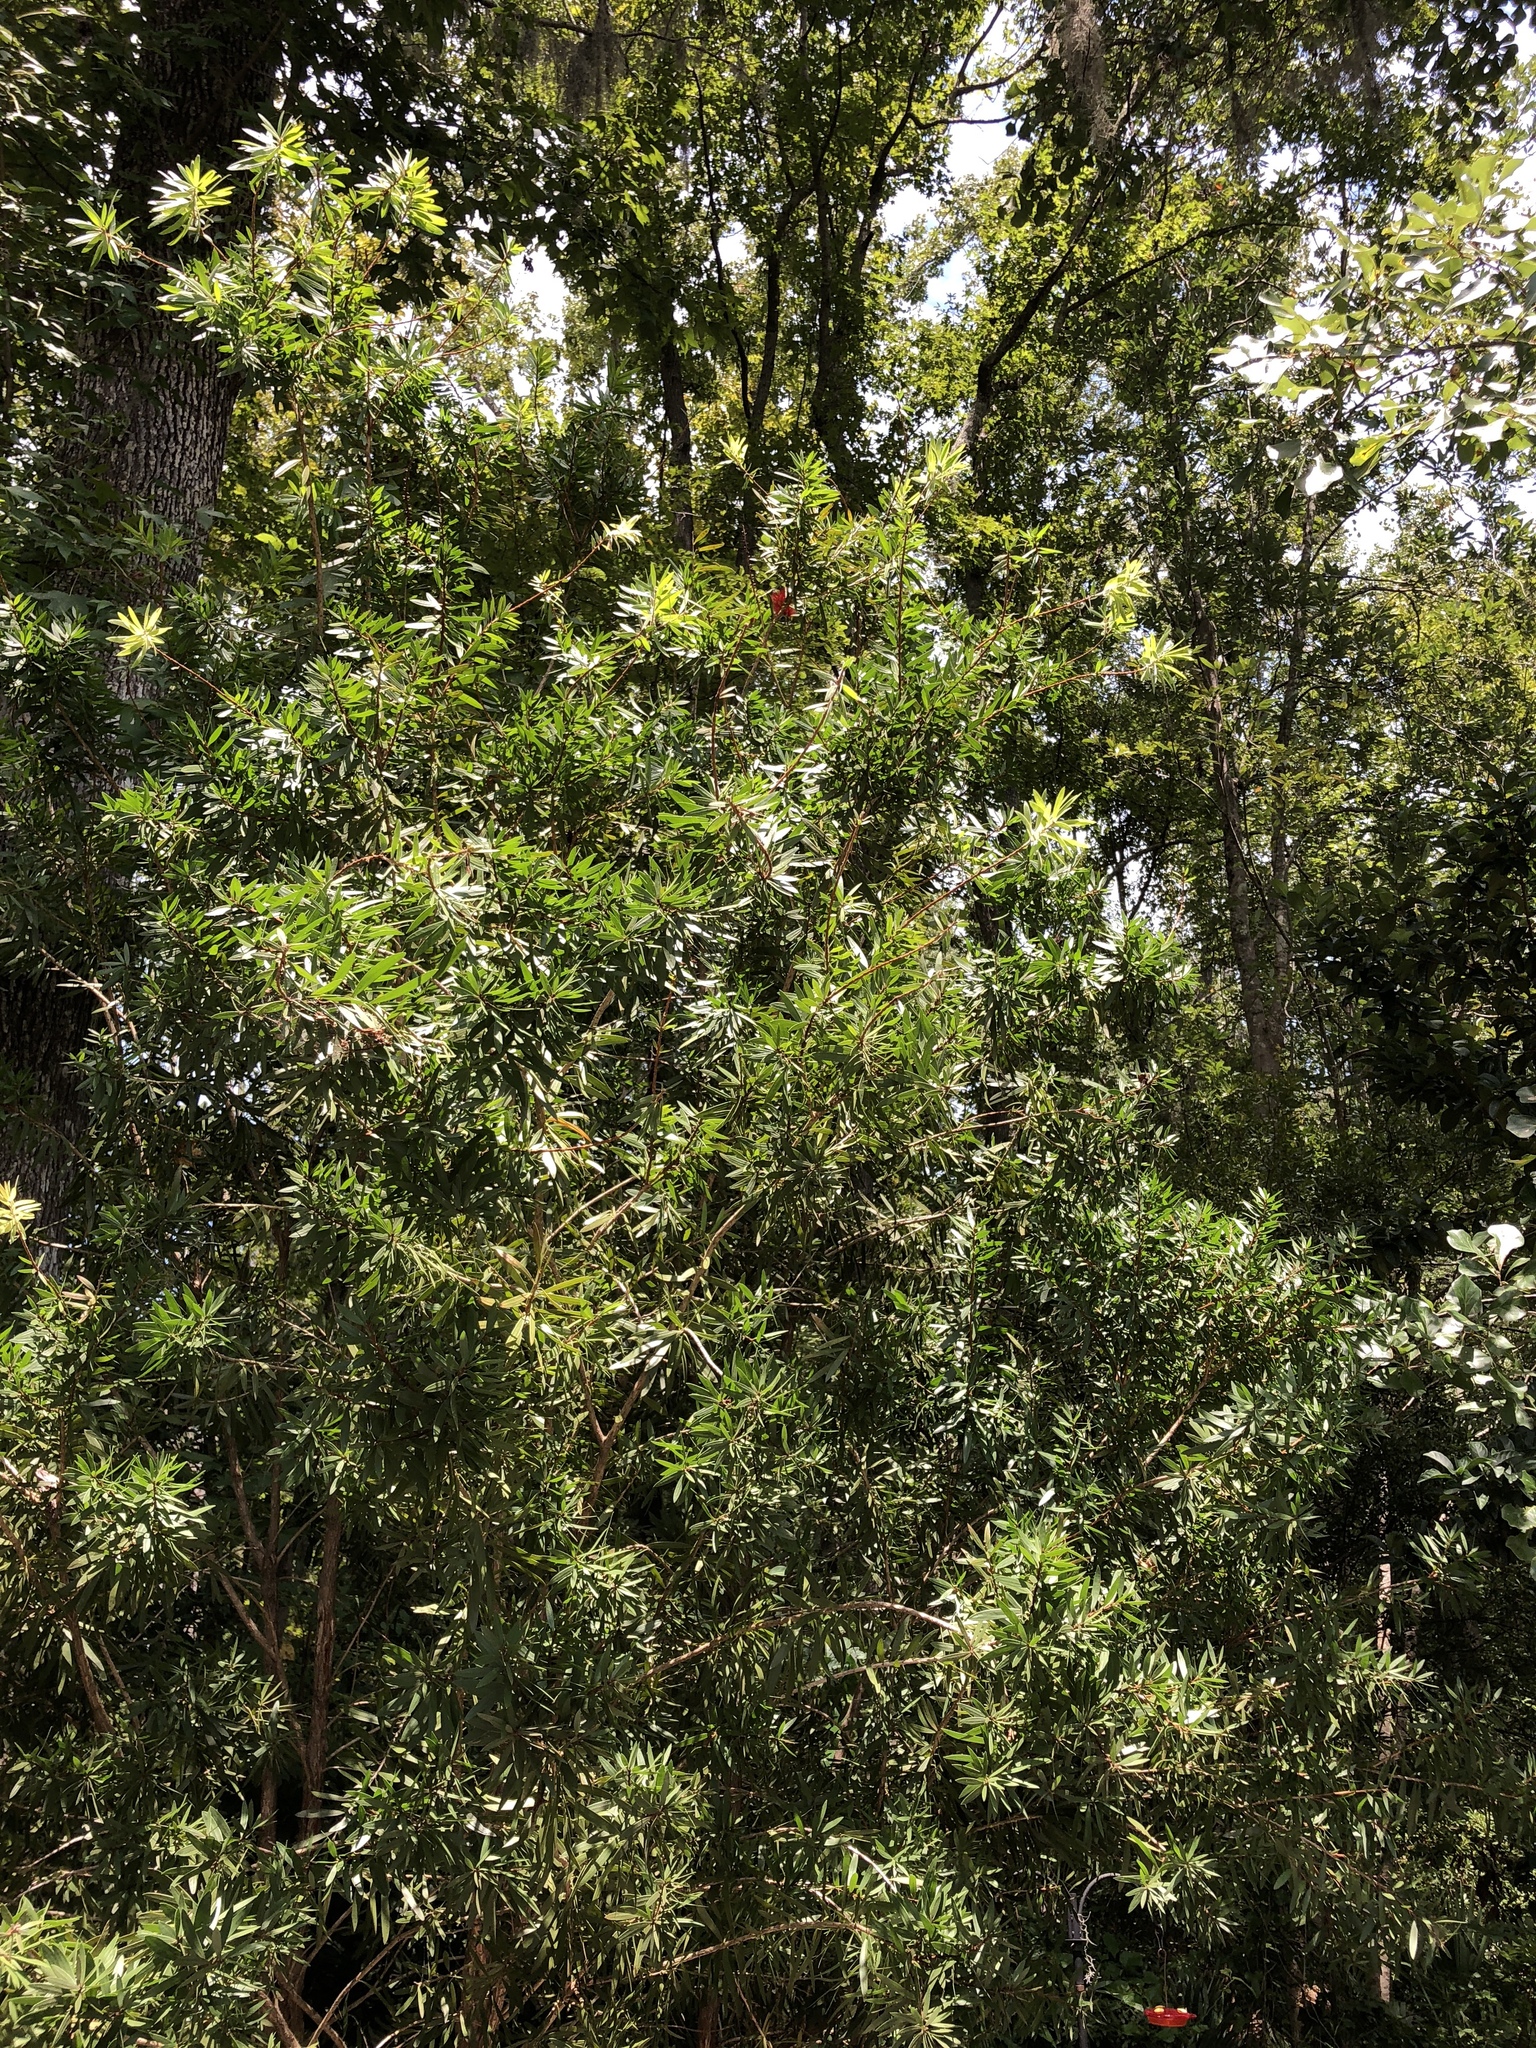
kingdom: Plantae
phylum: Tracheophyta
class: Magnoliopsida
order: Fagales
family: Myricaceae
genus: Morella
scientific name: Morella cerifera
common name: Wax myrtle
